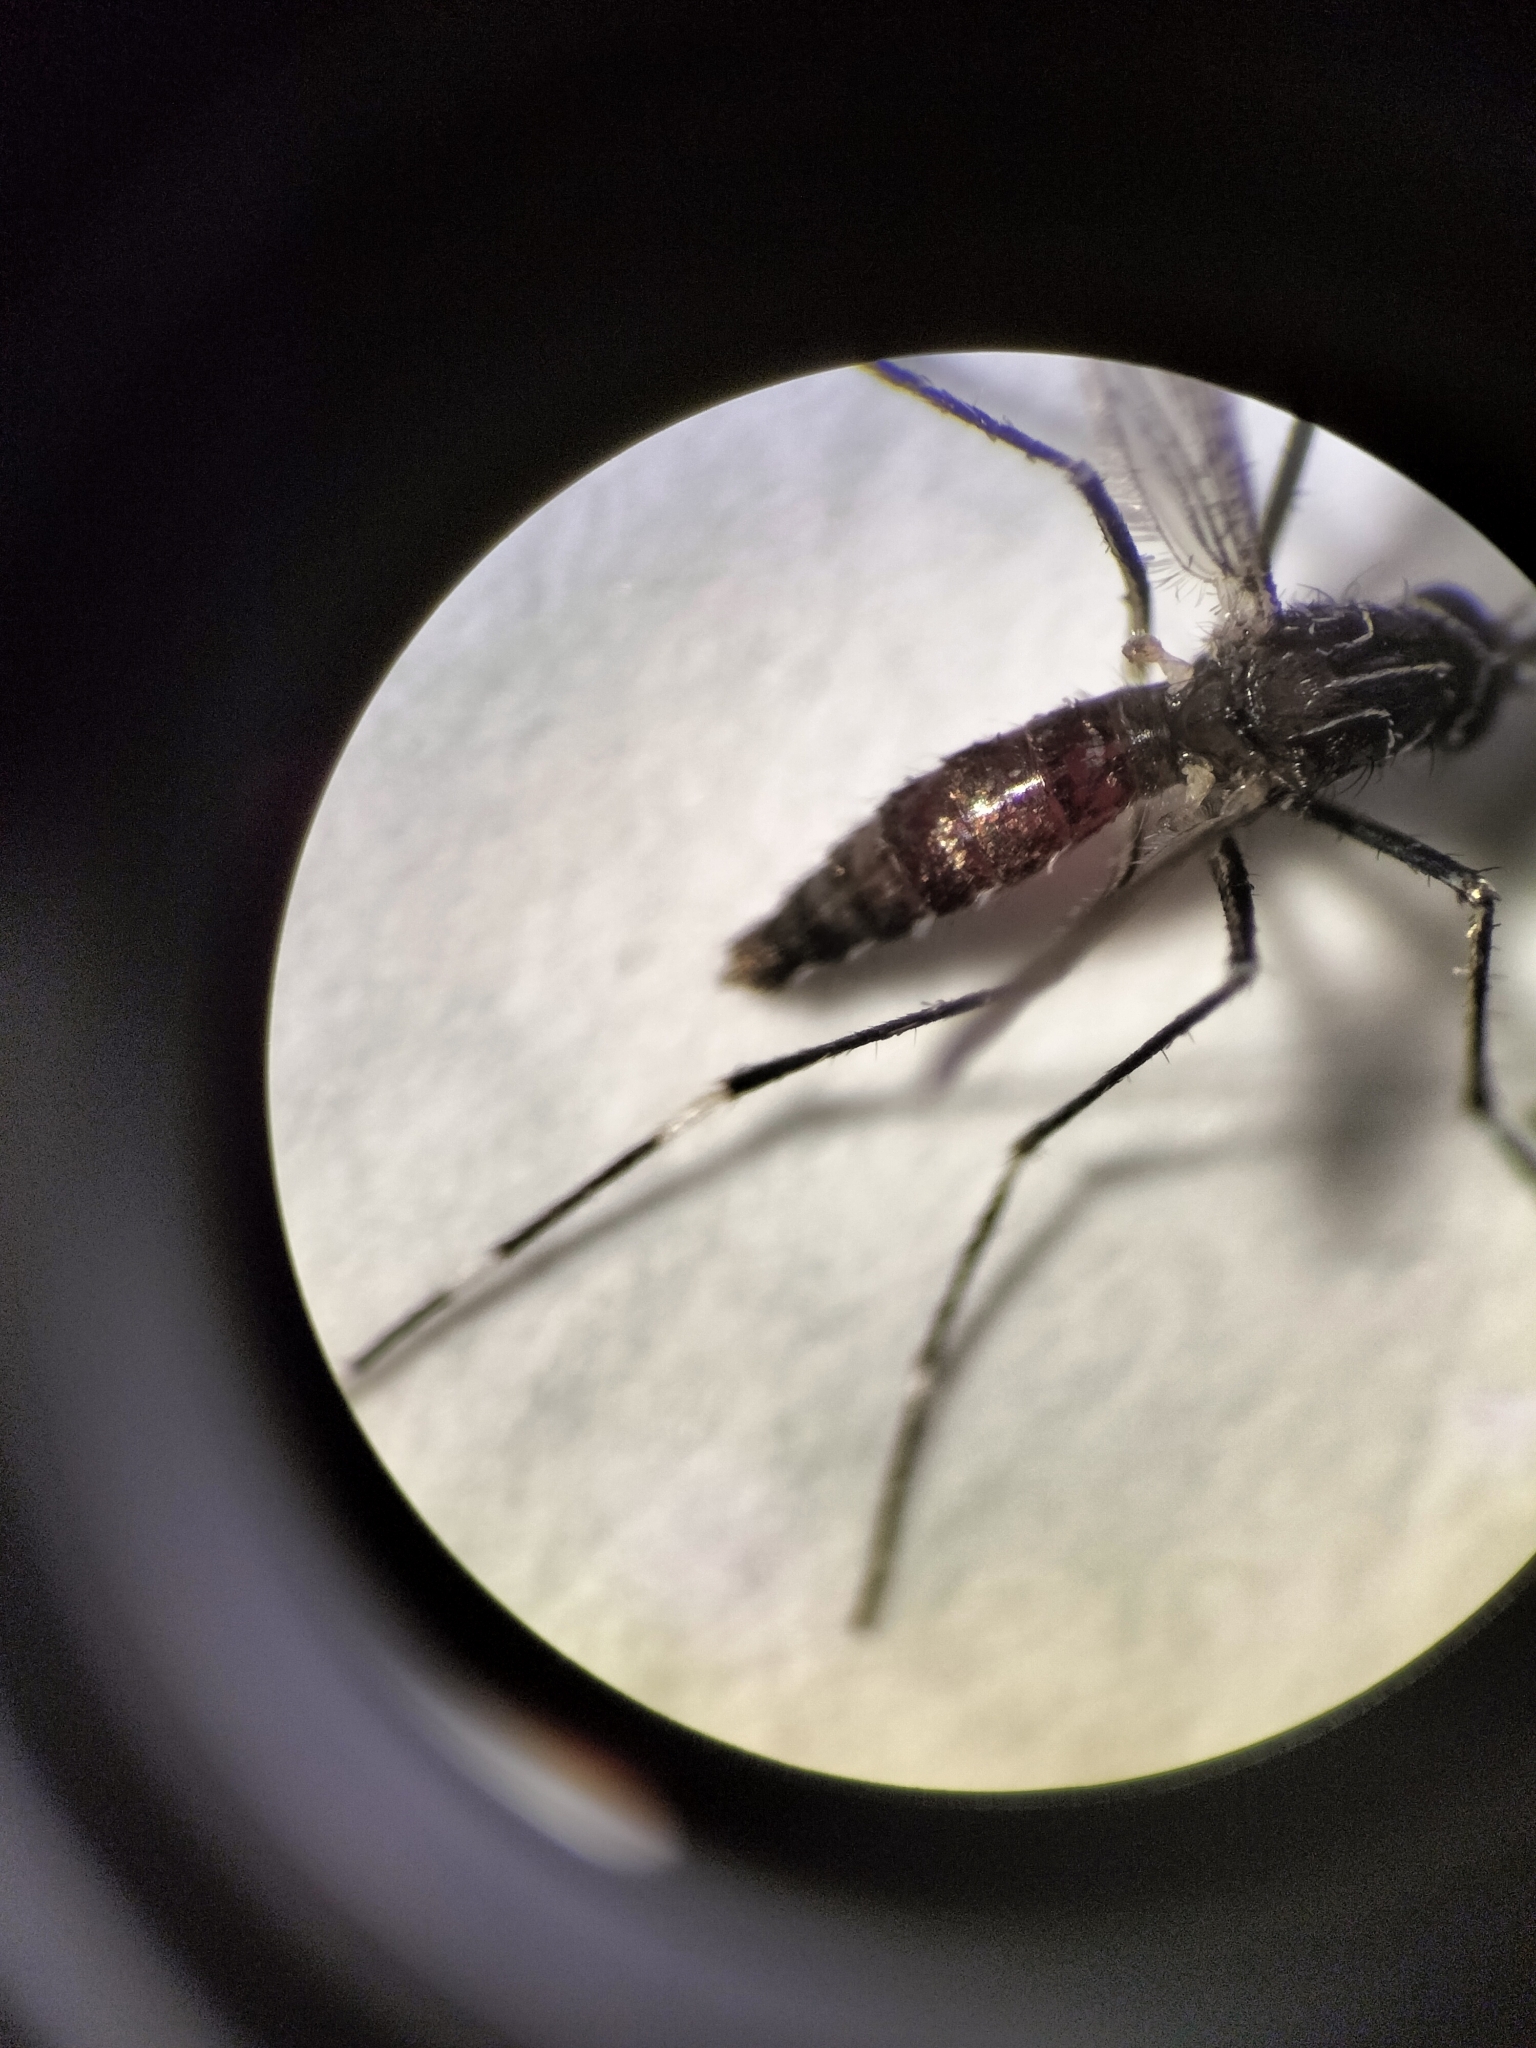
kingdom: Animalia
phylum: Arthropoda
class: Insecta
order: Diptera
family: Culicidae
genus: Aedes
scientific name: Aedes notoscriptus
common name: Australian backyard mosquito
